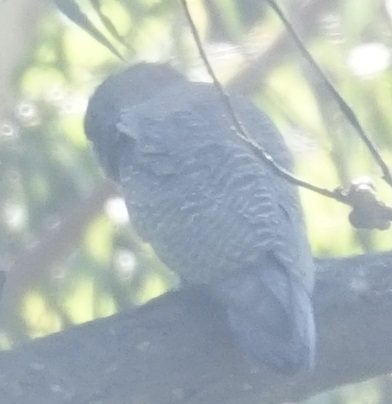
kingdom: Animalia
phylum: Chordata
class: Aves
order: Psittaciformes
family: Psittacidae
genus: Callocephalon
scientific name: Callocephalon fimbriatum
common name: Gang-gang cockatoo
